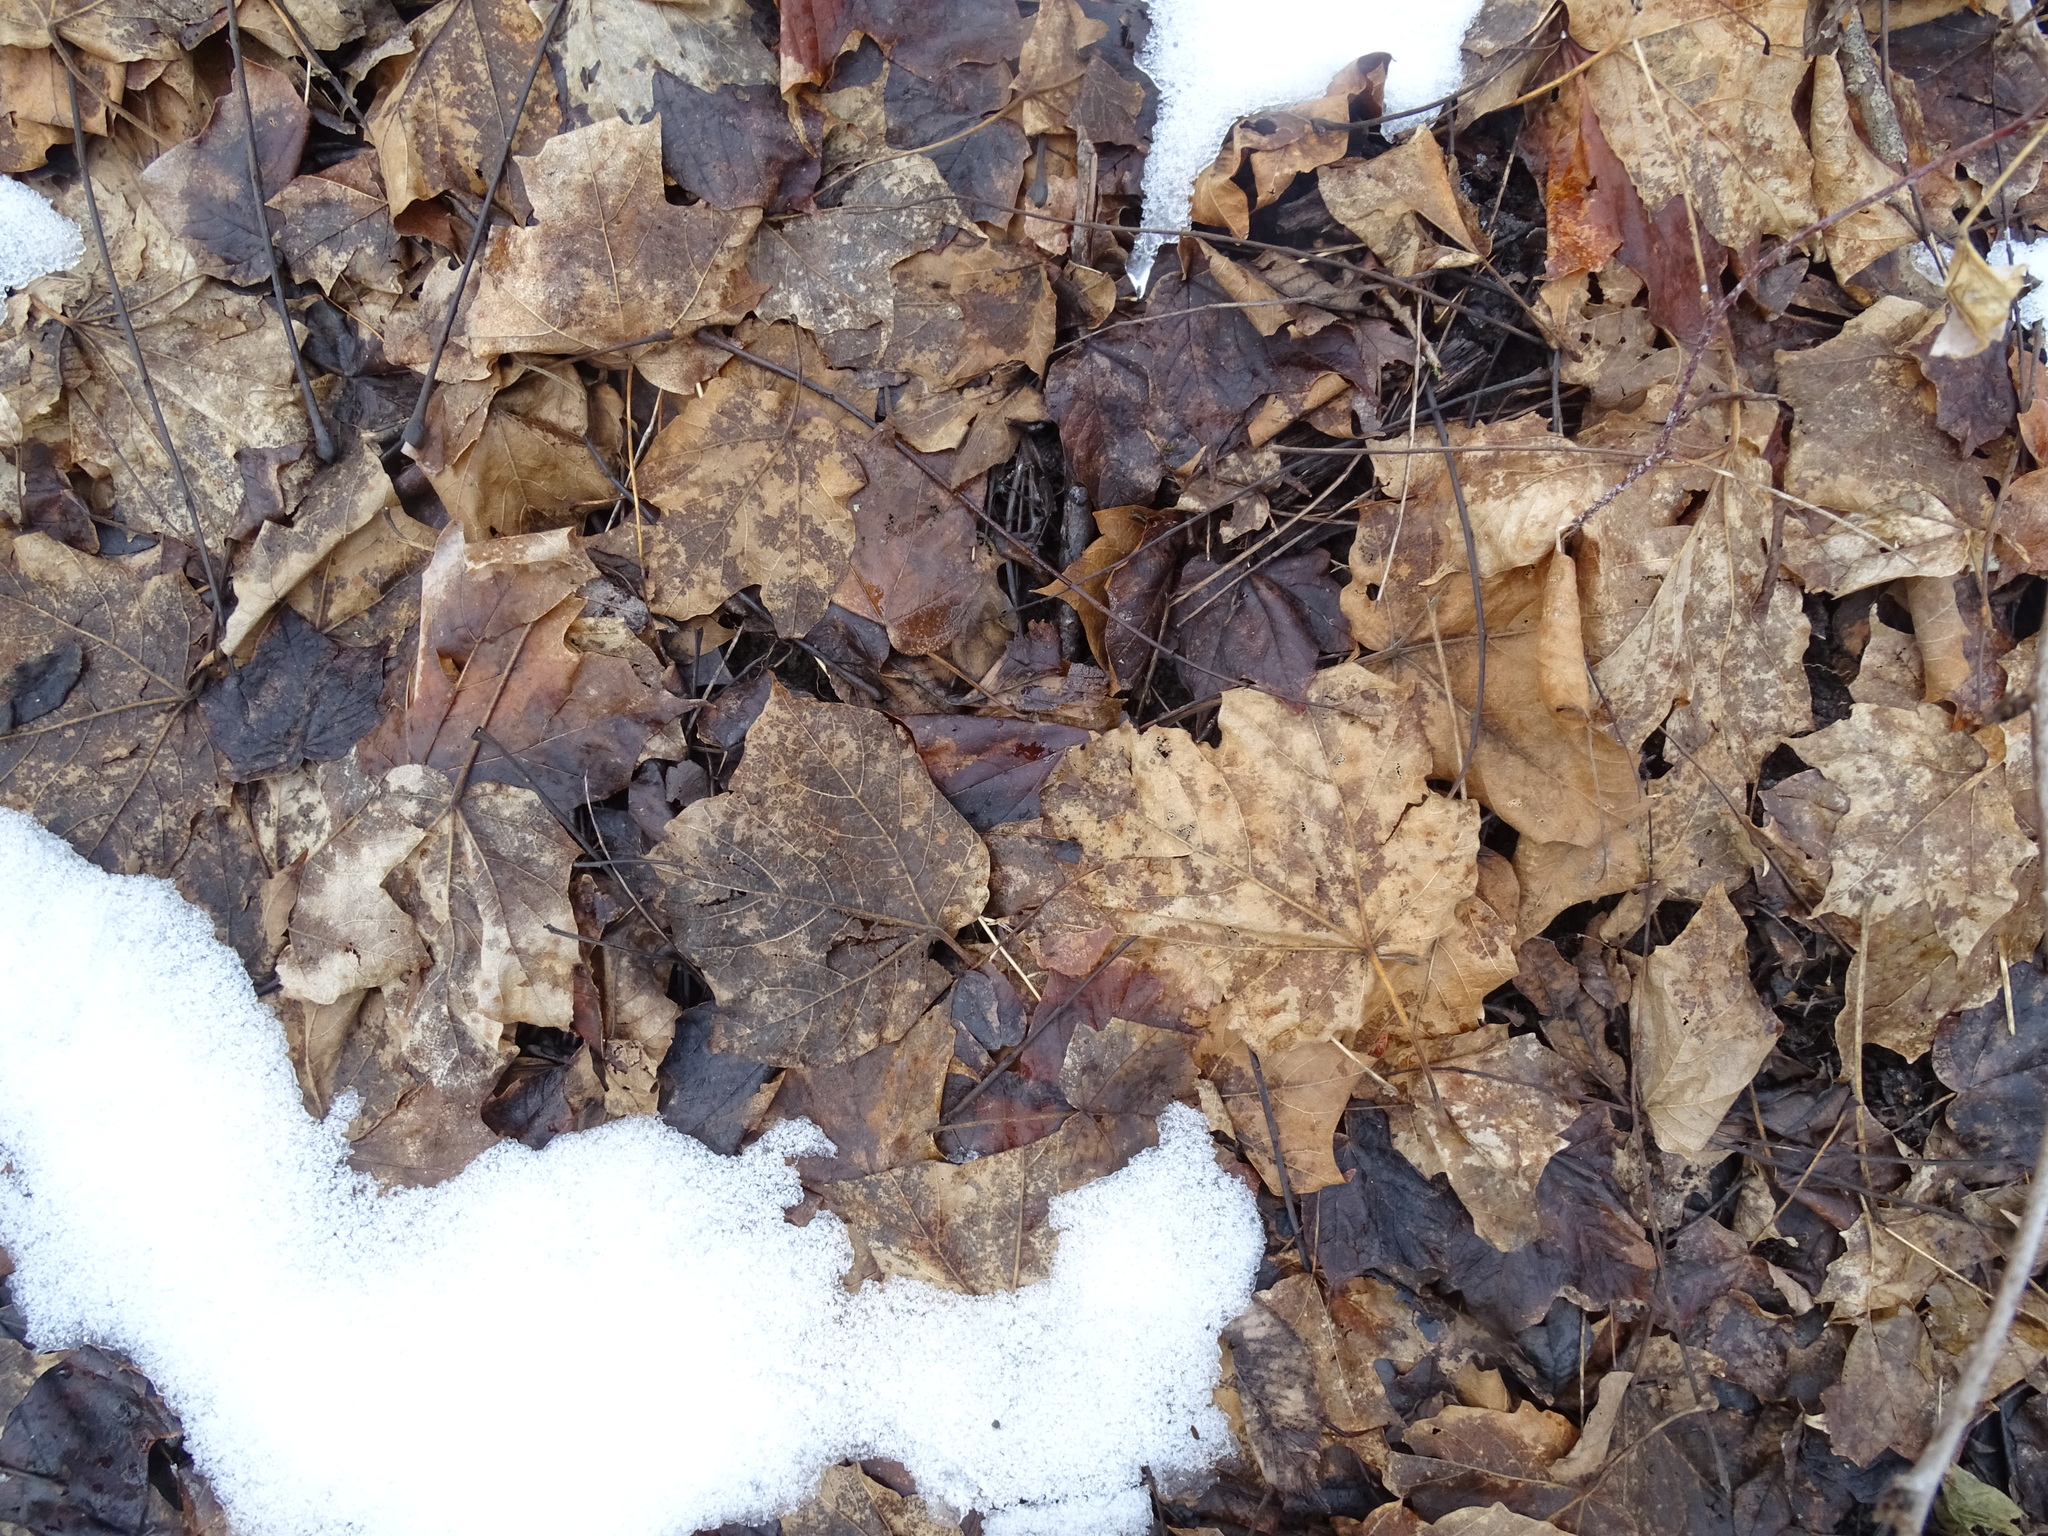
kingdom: Plantae
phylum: Tracheophyta
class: Magnoliopsida
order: Sapindales
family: Sapindaceae
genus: Acer
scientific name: Acer nigrum
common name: Black maple
